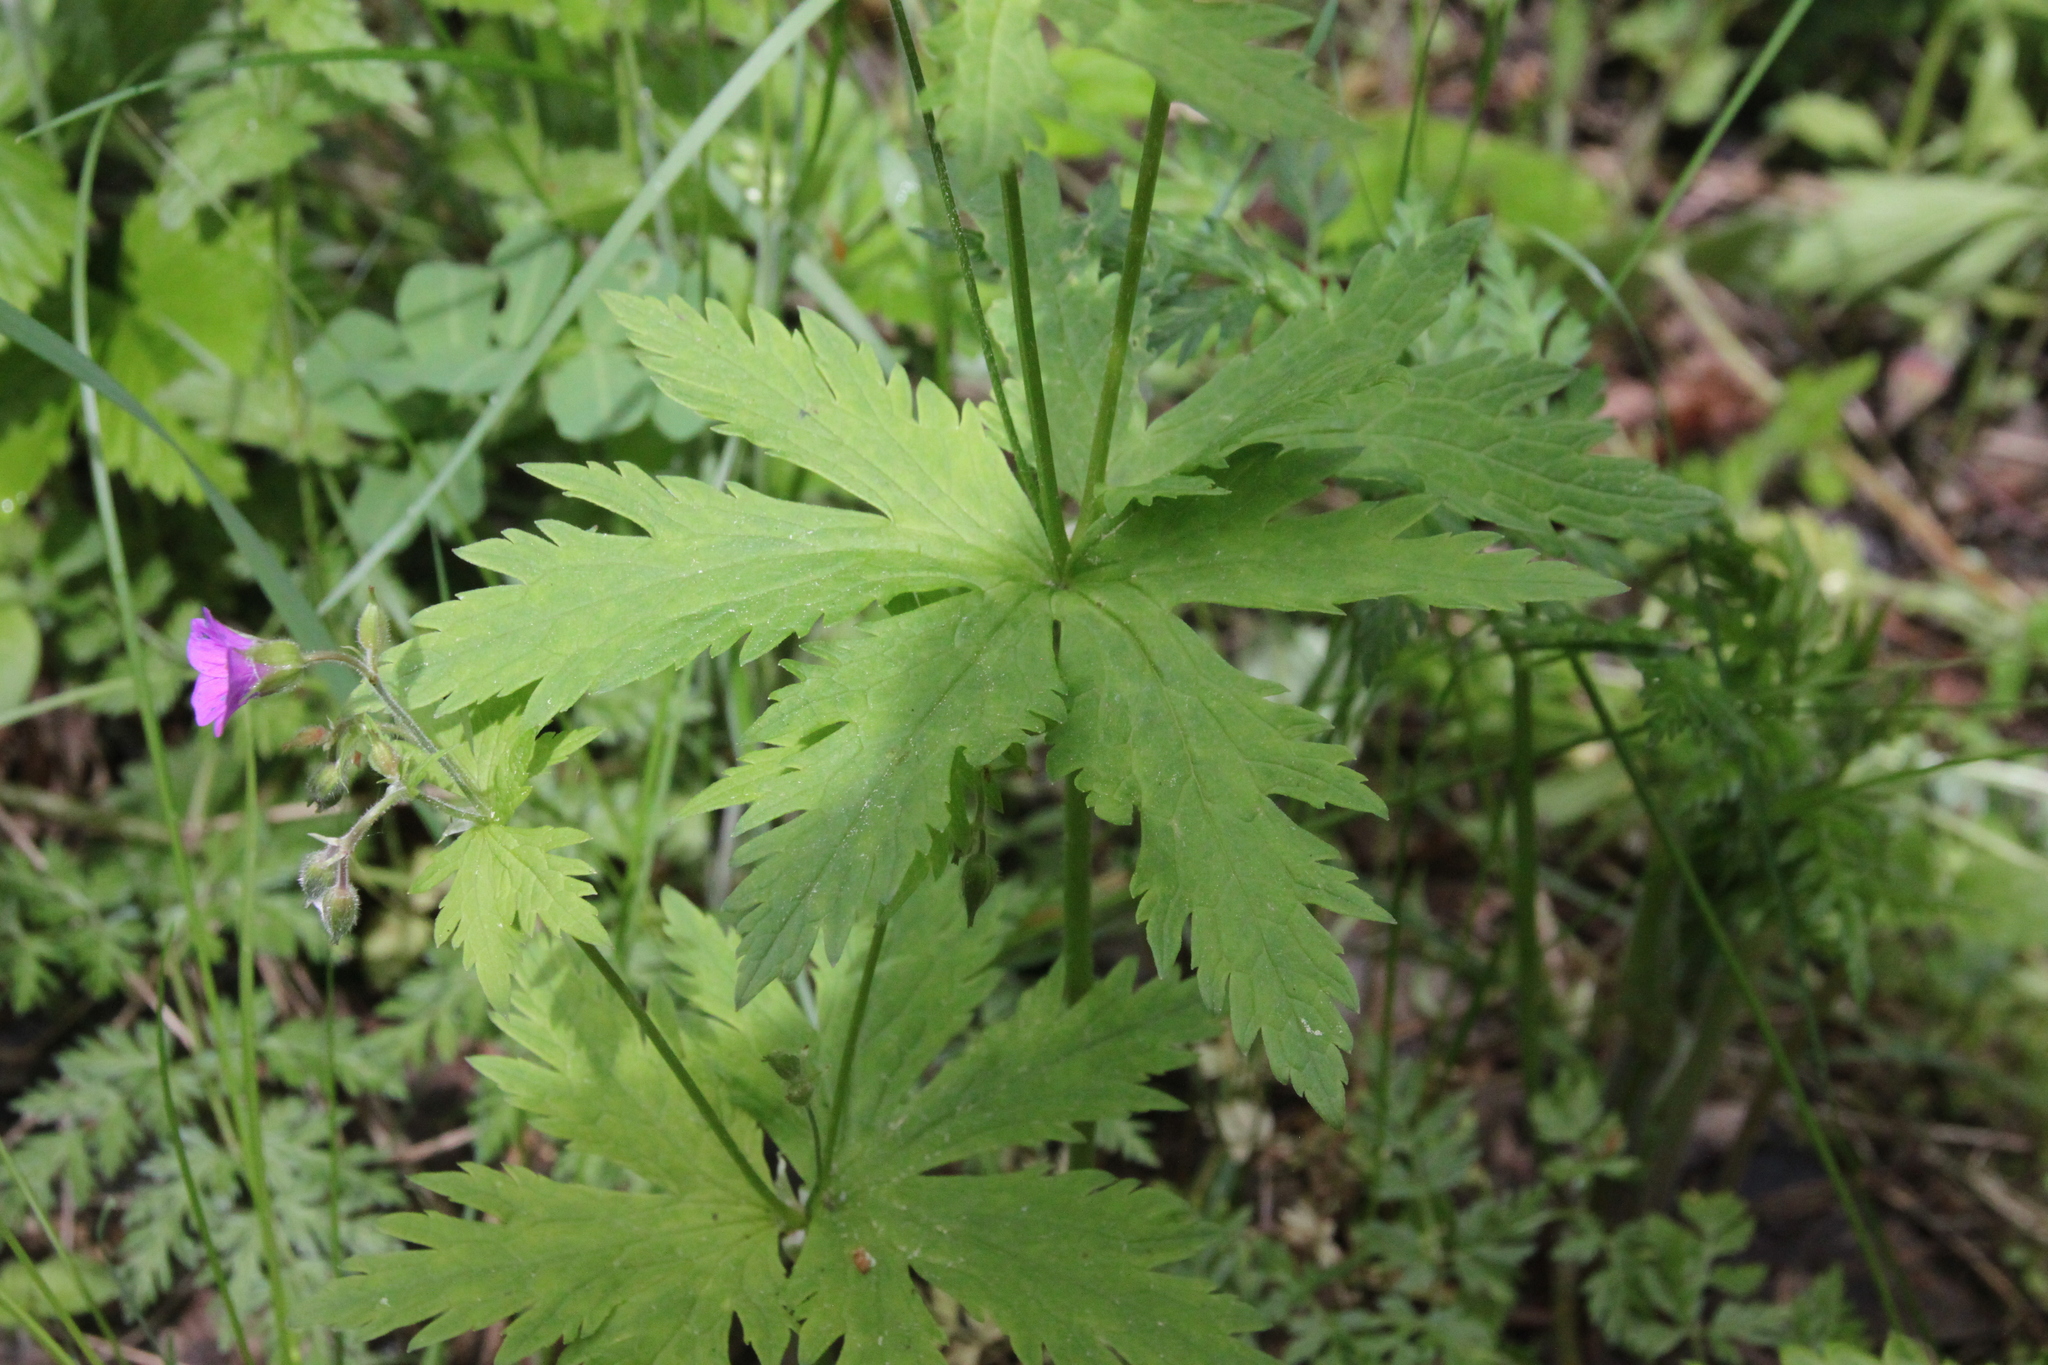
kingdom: Plantae
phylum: Tracheophyta
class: Magnoliopsida
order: Geraniales
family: Geraniaceae
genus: Geranium
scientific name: Geranium sylvaticum
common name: Wood crane's-bill
